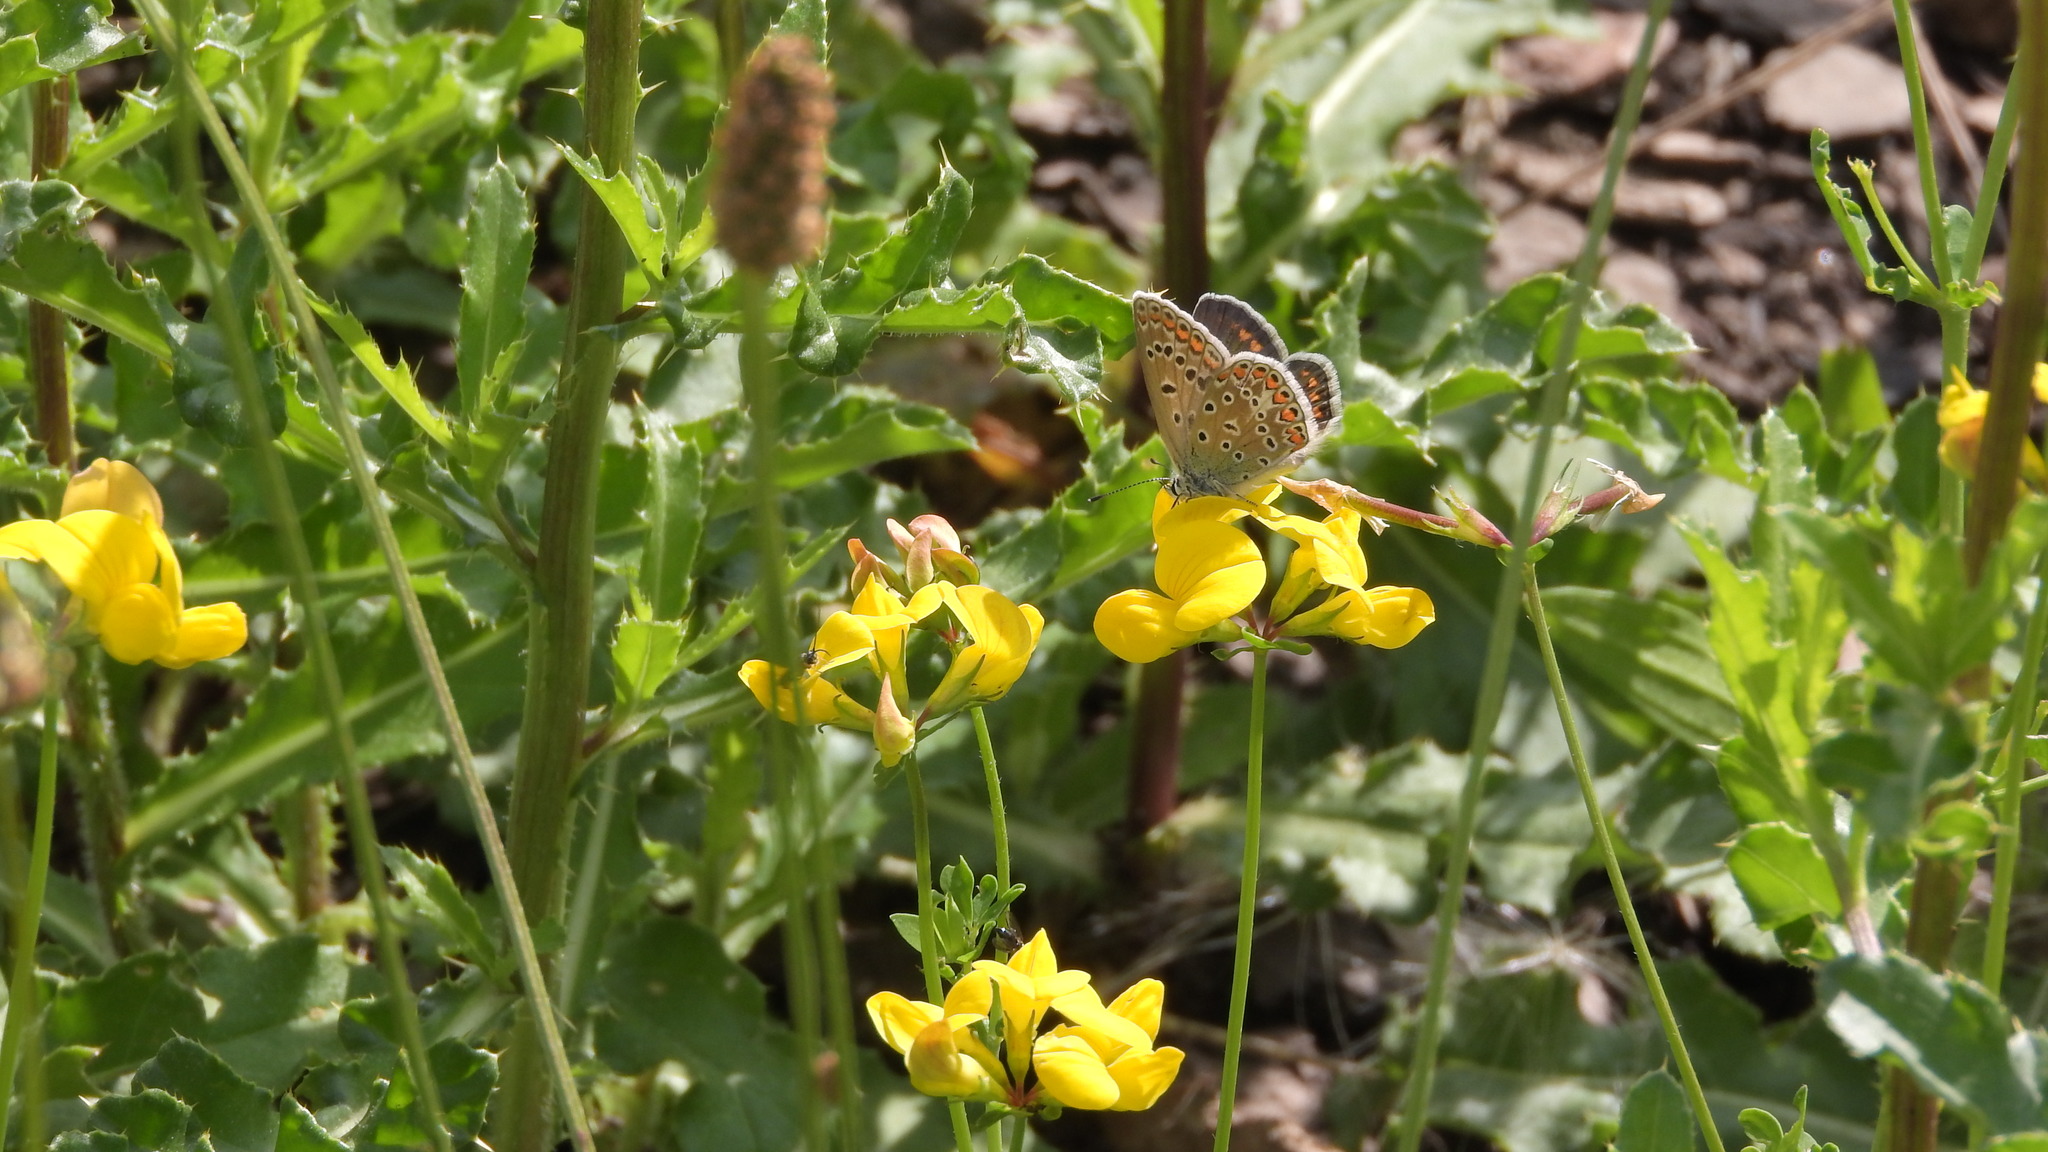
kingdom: Animalia
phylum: Arthropoda
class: Insecta
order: Lepidoptera
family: Lycaenidae
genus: Polyommatus
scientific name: Polyommatus icarus
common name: Common blue
